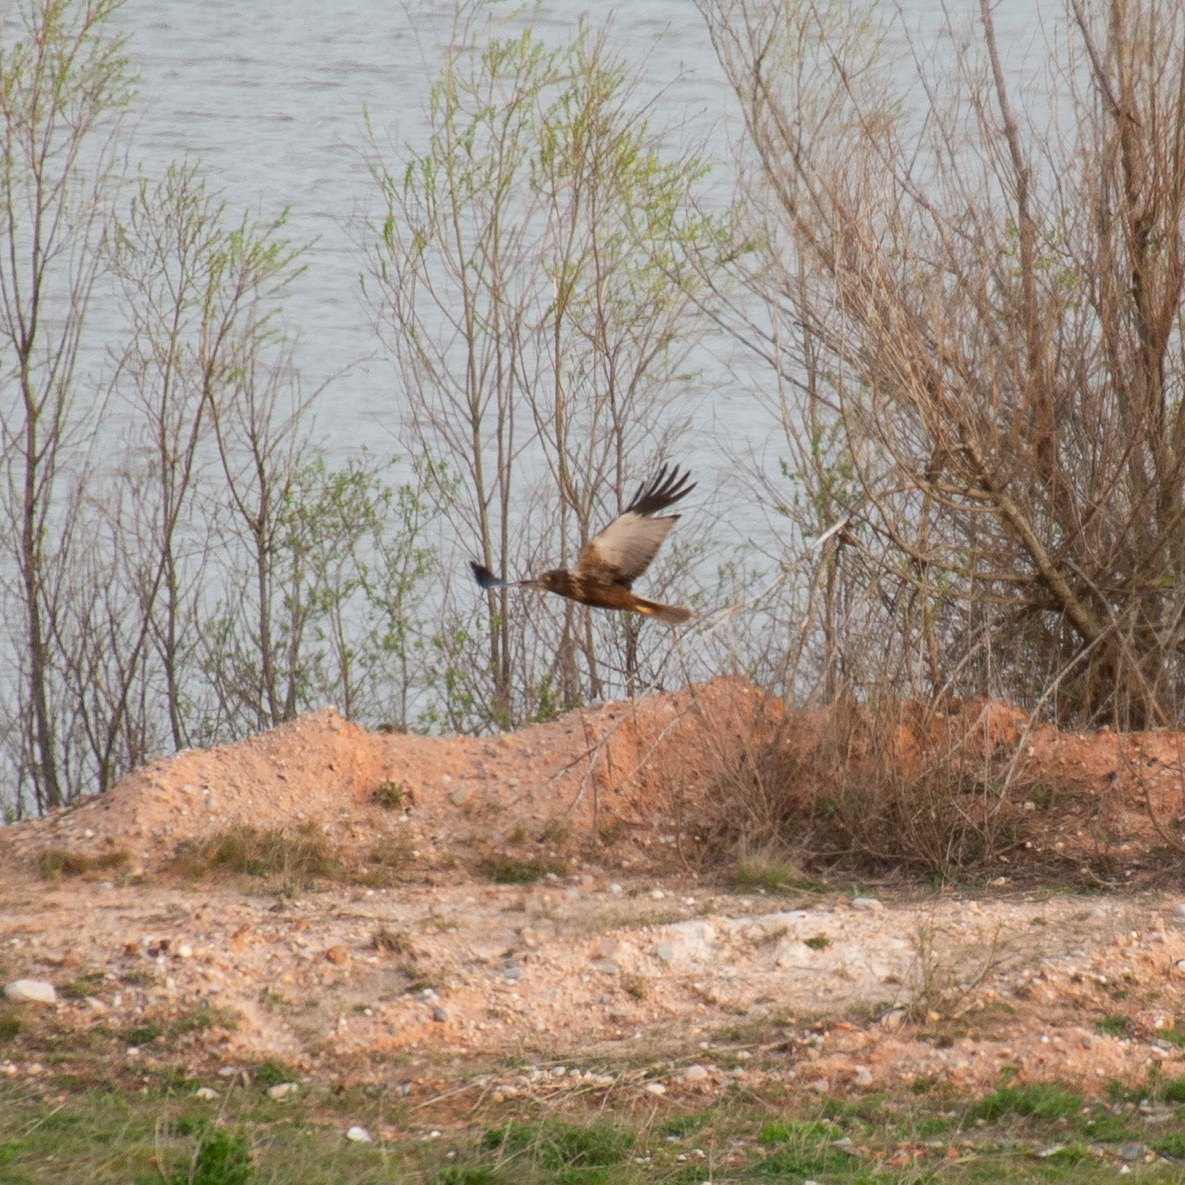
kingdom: Animalia
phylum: Chordata
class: Aves
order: Accipitriformes
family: Accipitridae
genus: Circus
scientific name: Circus aeruginosus
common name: Western marsh harrier
